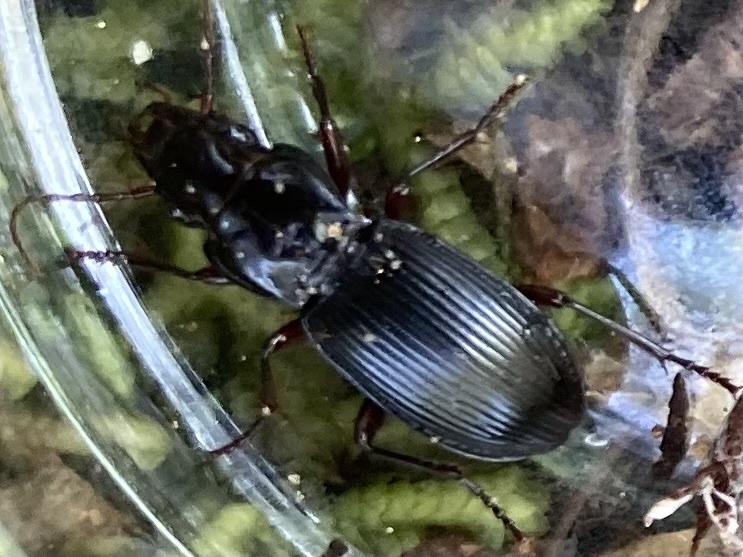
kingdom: Animalia
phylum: Arthropoda
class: Insecta
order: Coleoptera
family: Carabidae
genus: Pterostichus
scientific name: Pterostichus rostratus
